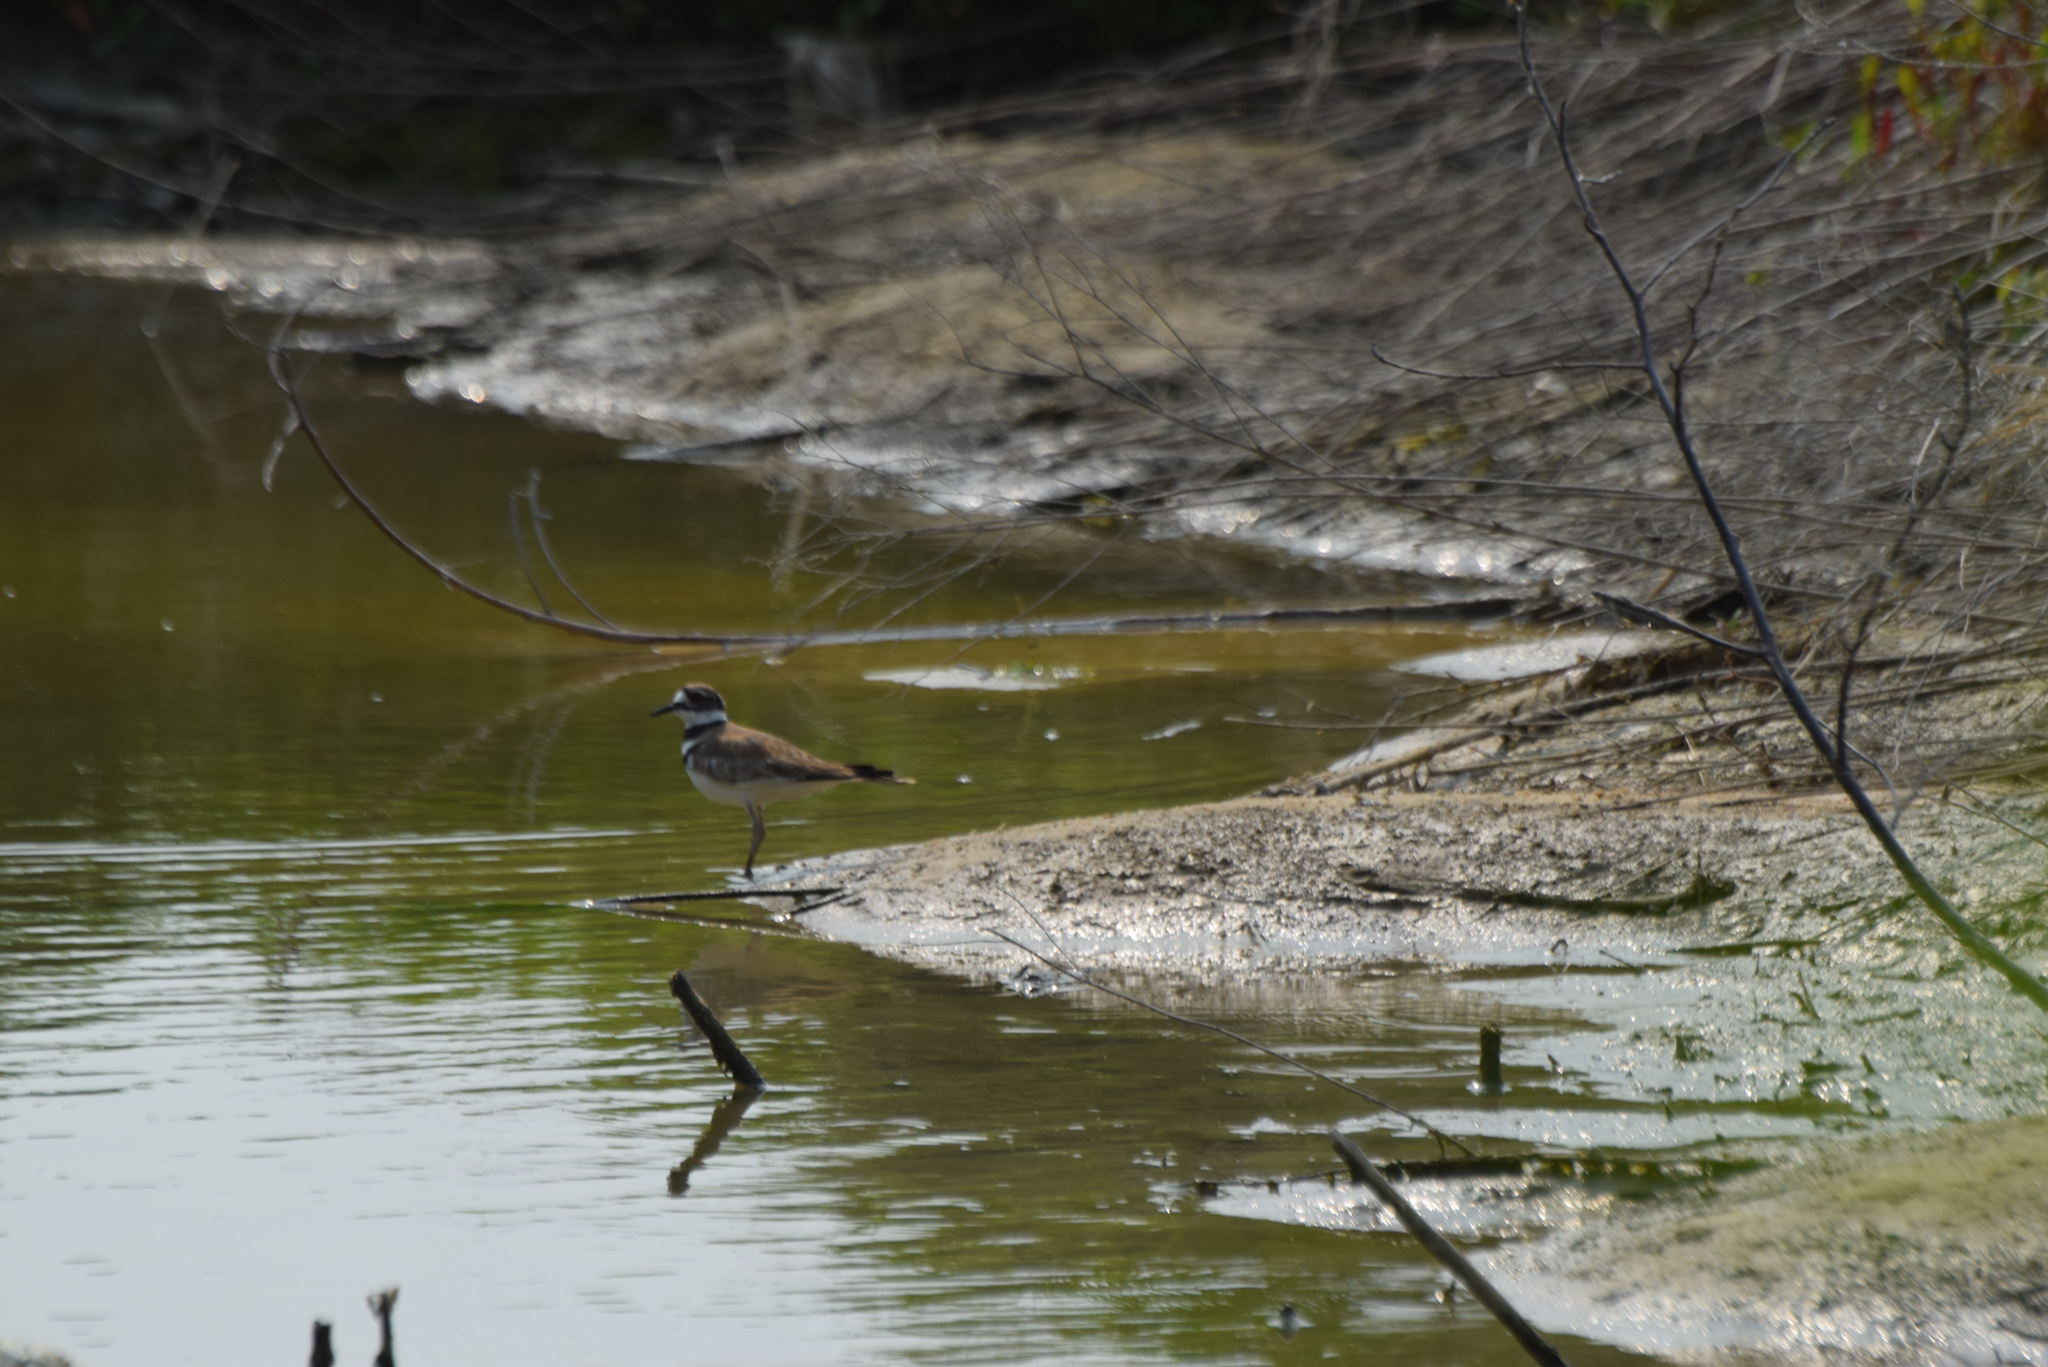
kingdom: Animalia
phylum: Chordata
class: Aves
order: Charadriiformes
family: Charadriidae
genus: Charadrius
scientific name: Charadrius vociferus
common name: Killdeer
